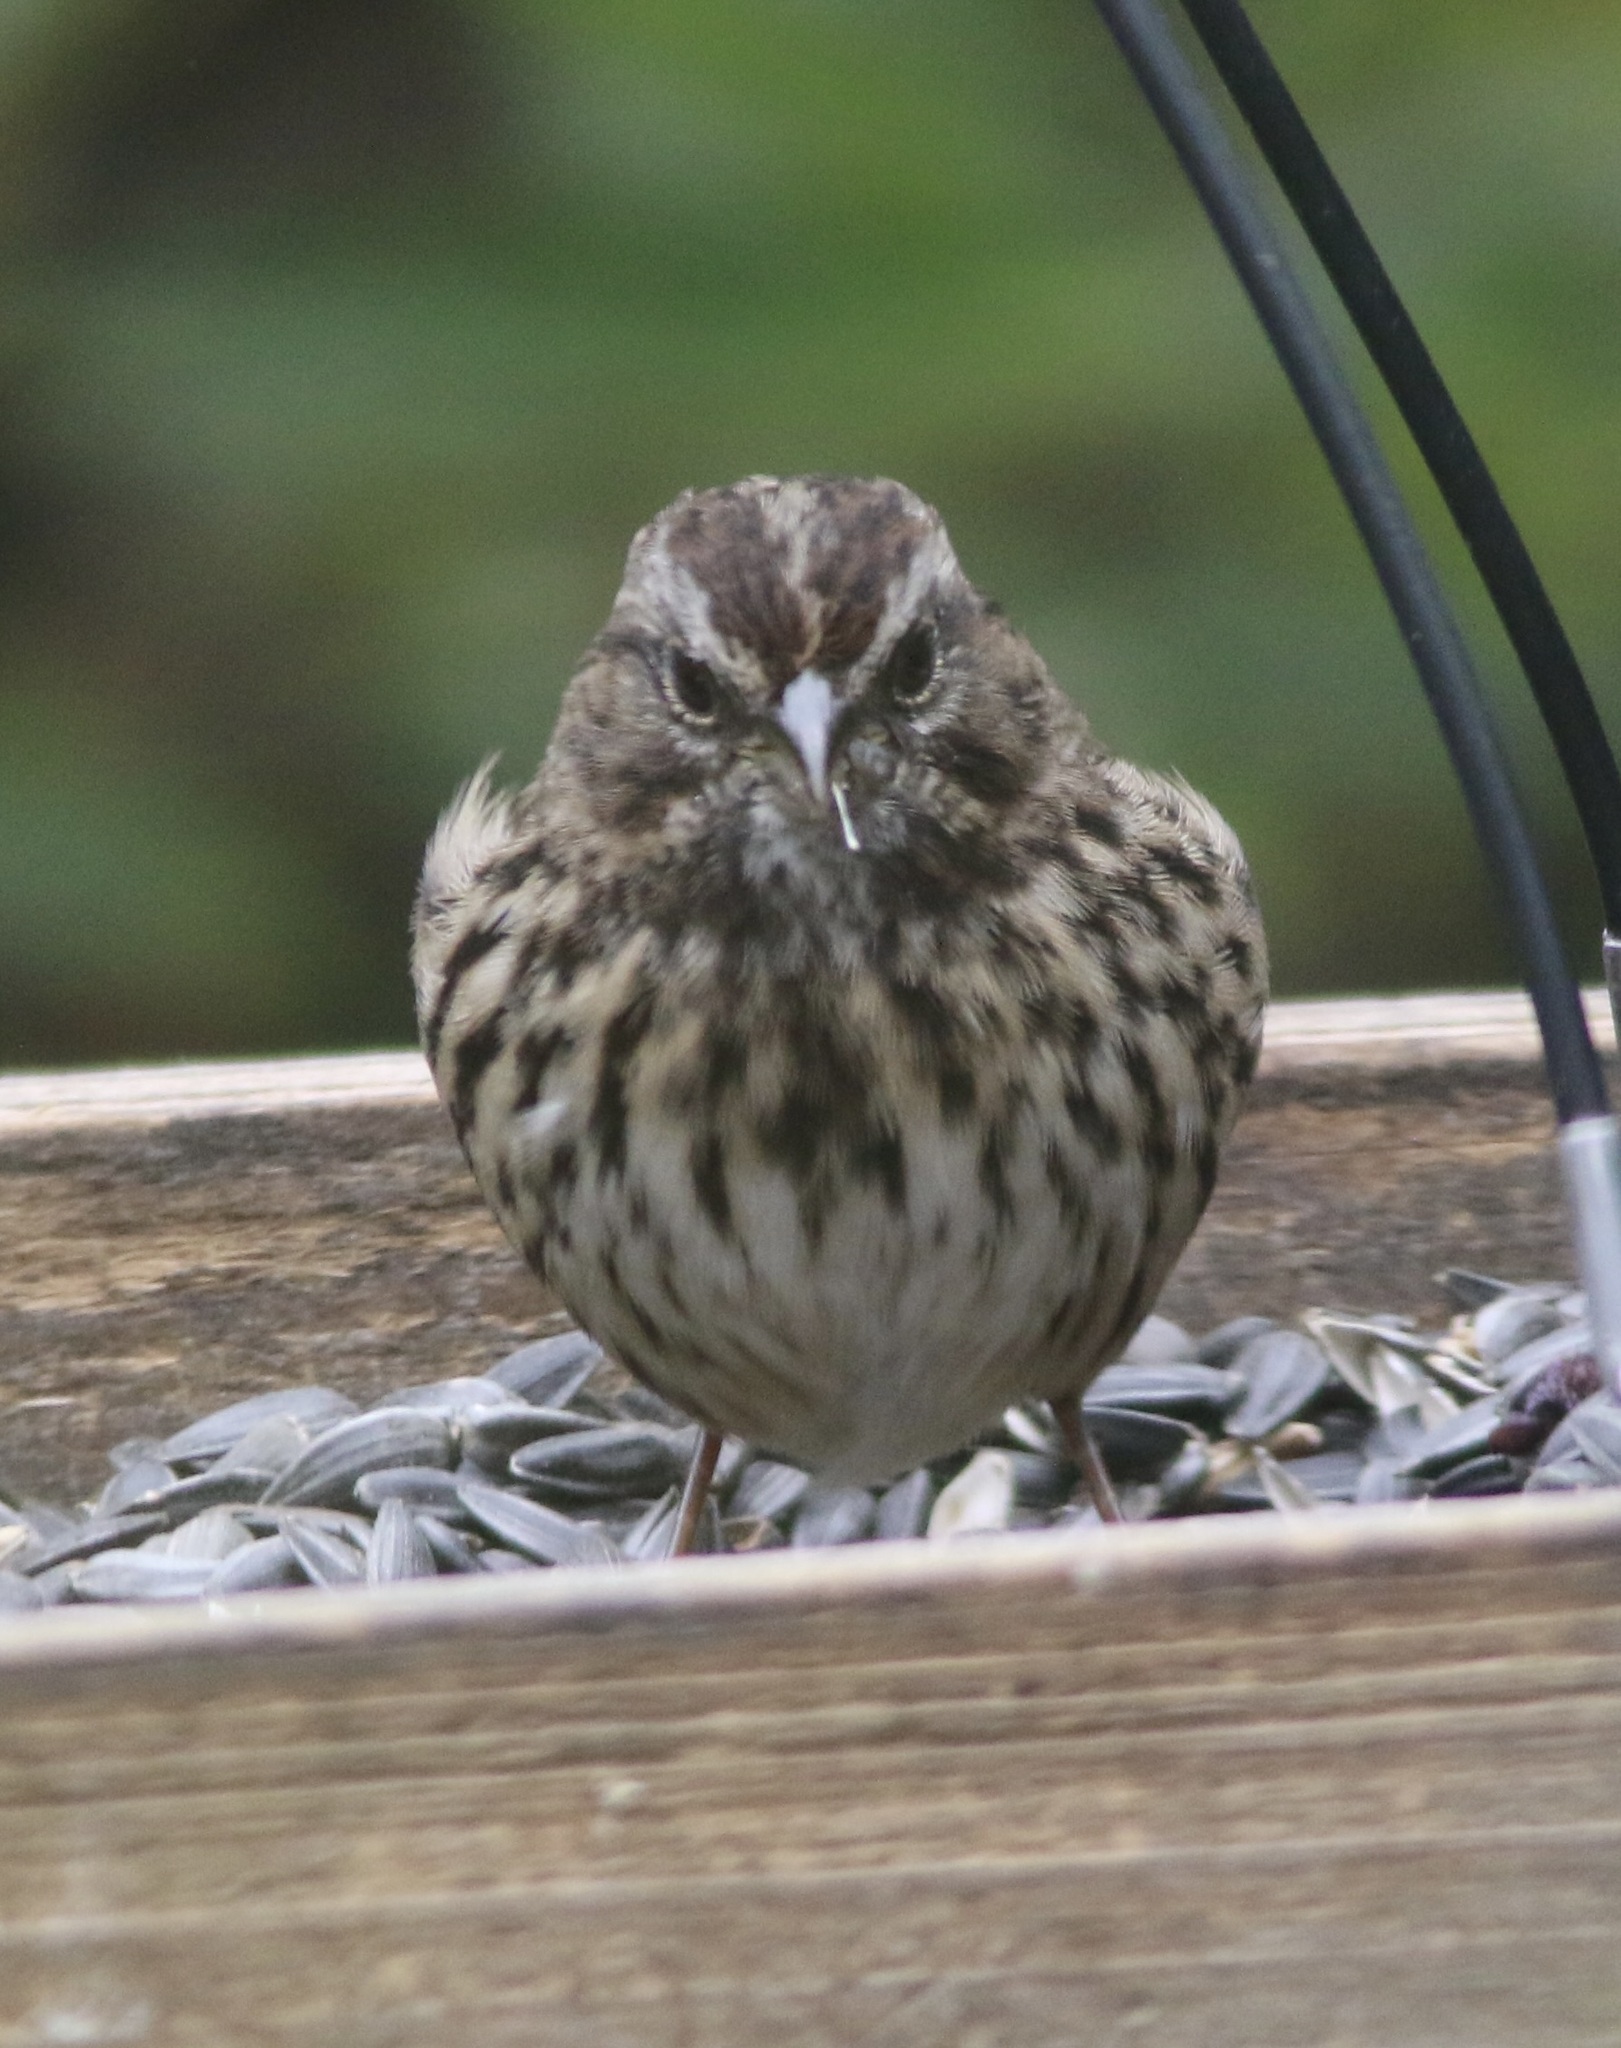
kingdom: Animalia
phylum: Chordata
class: Aves
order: Passeriformes
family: Passerellidae
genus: Melospiza
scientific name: Melospiza melodia
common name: Song sparrow
